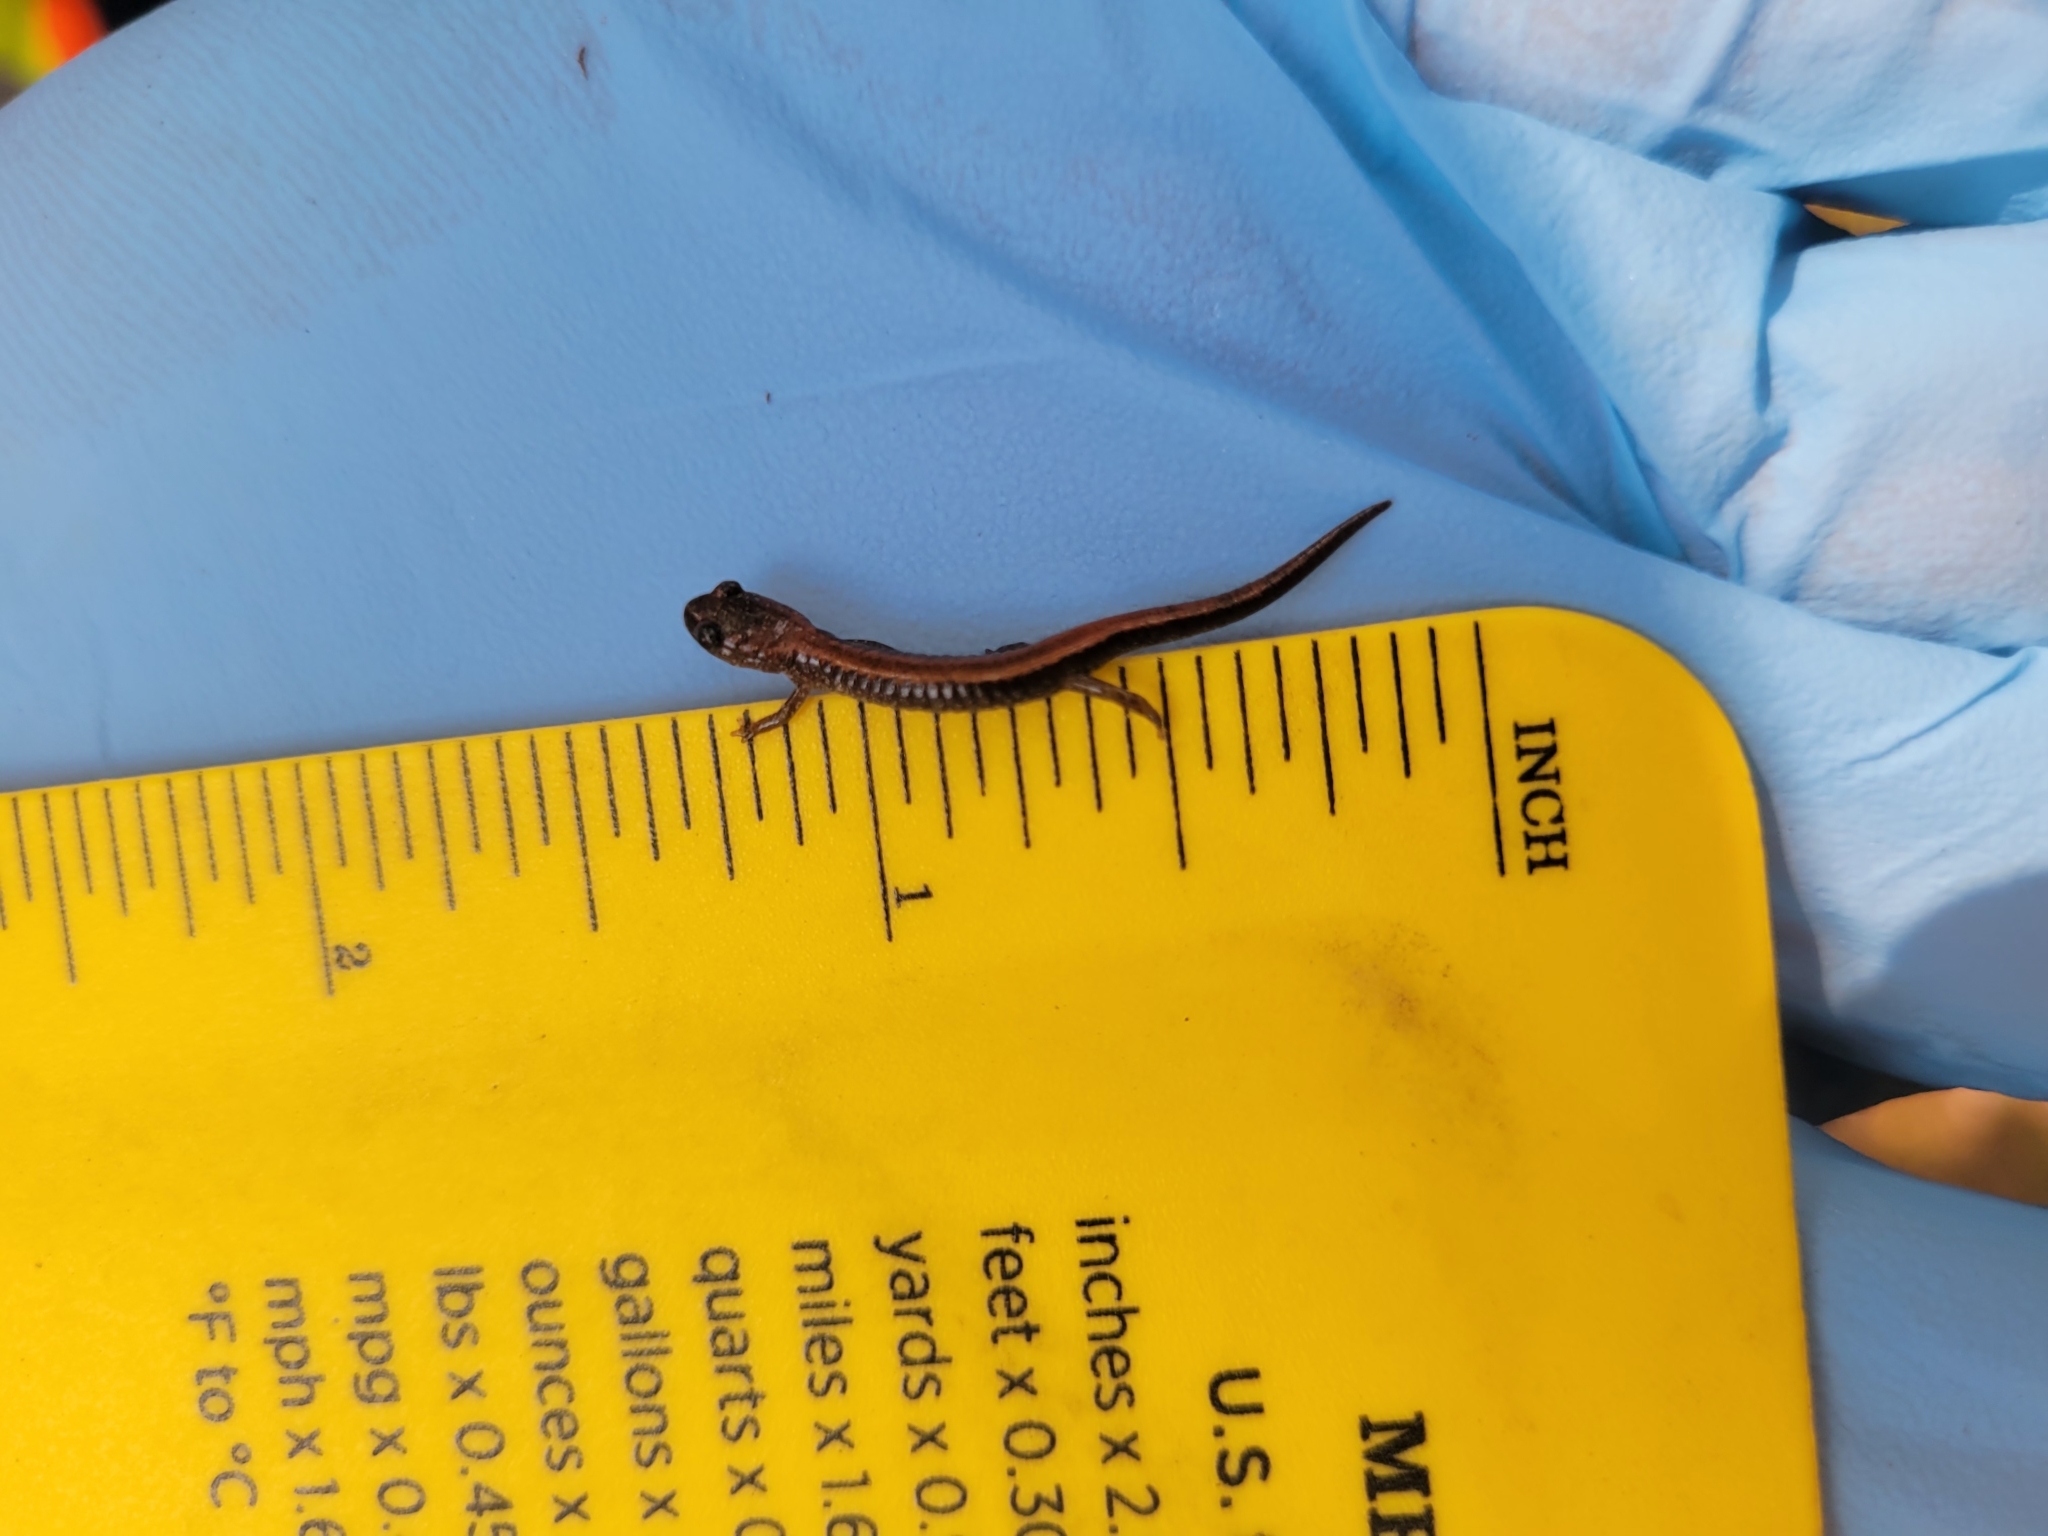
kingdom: Animalia
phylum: Chordata
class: Amphibia
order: Caudata
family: Plethodontidae
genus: Plethodon
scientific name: Plethodon cinereus
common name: Redback salamander
